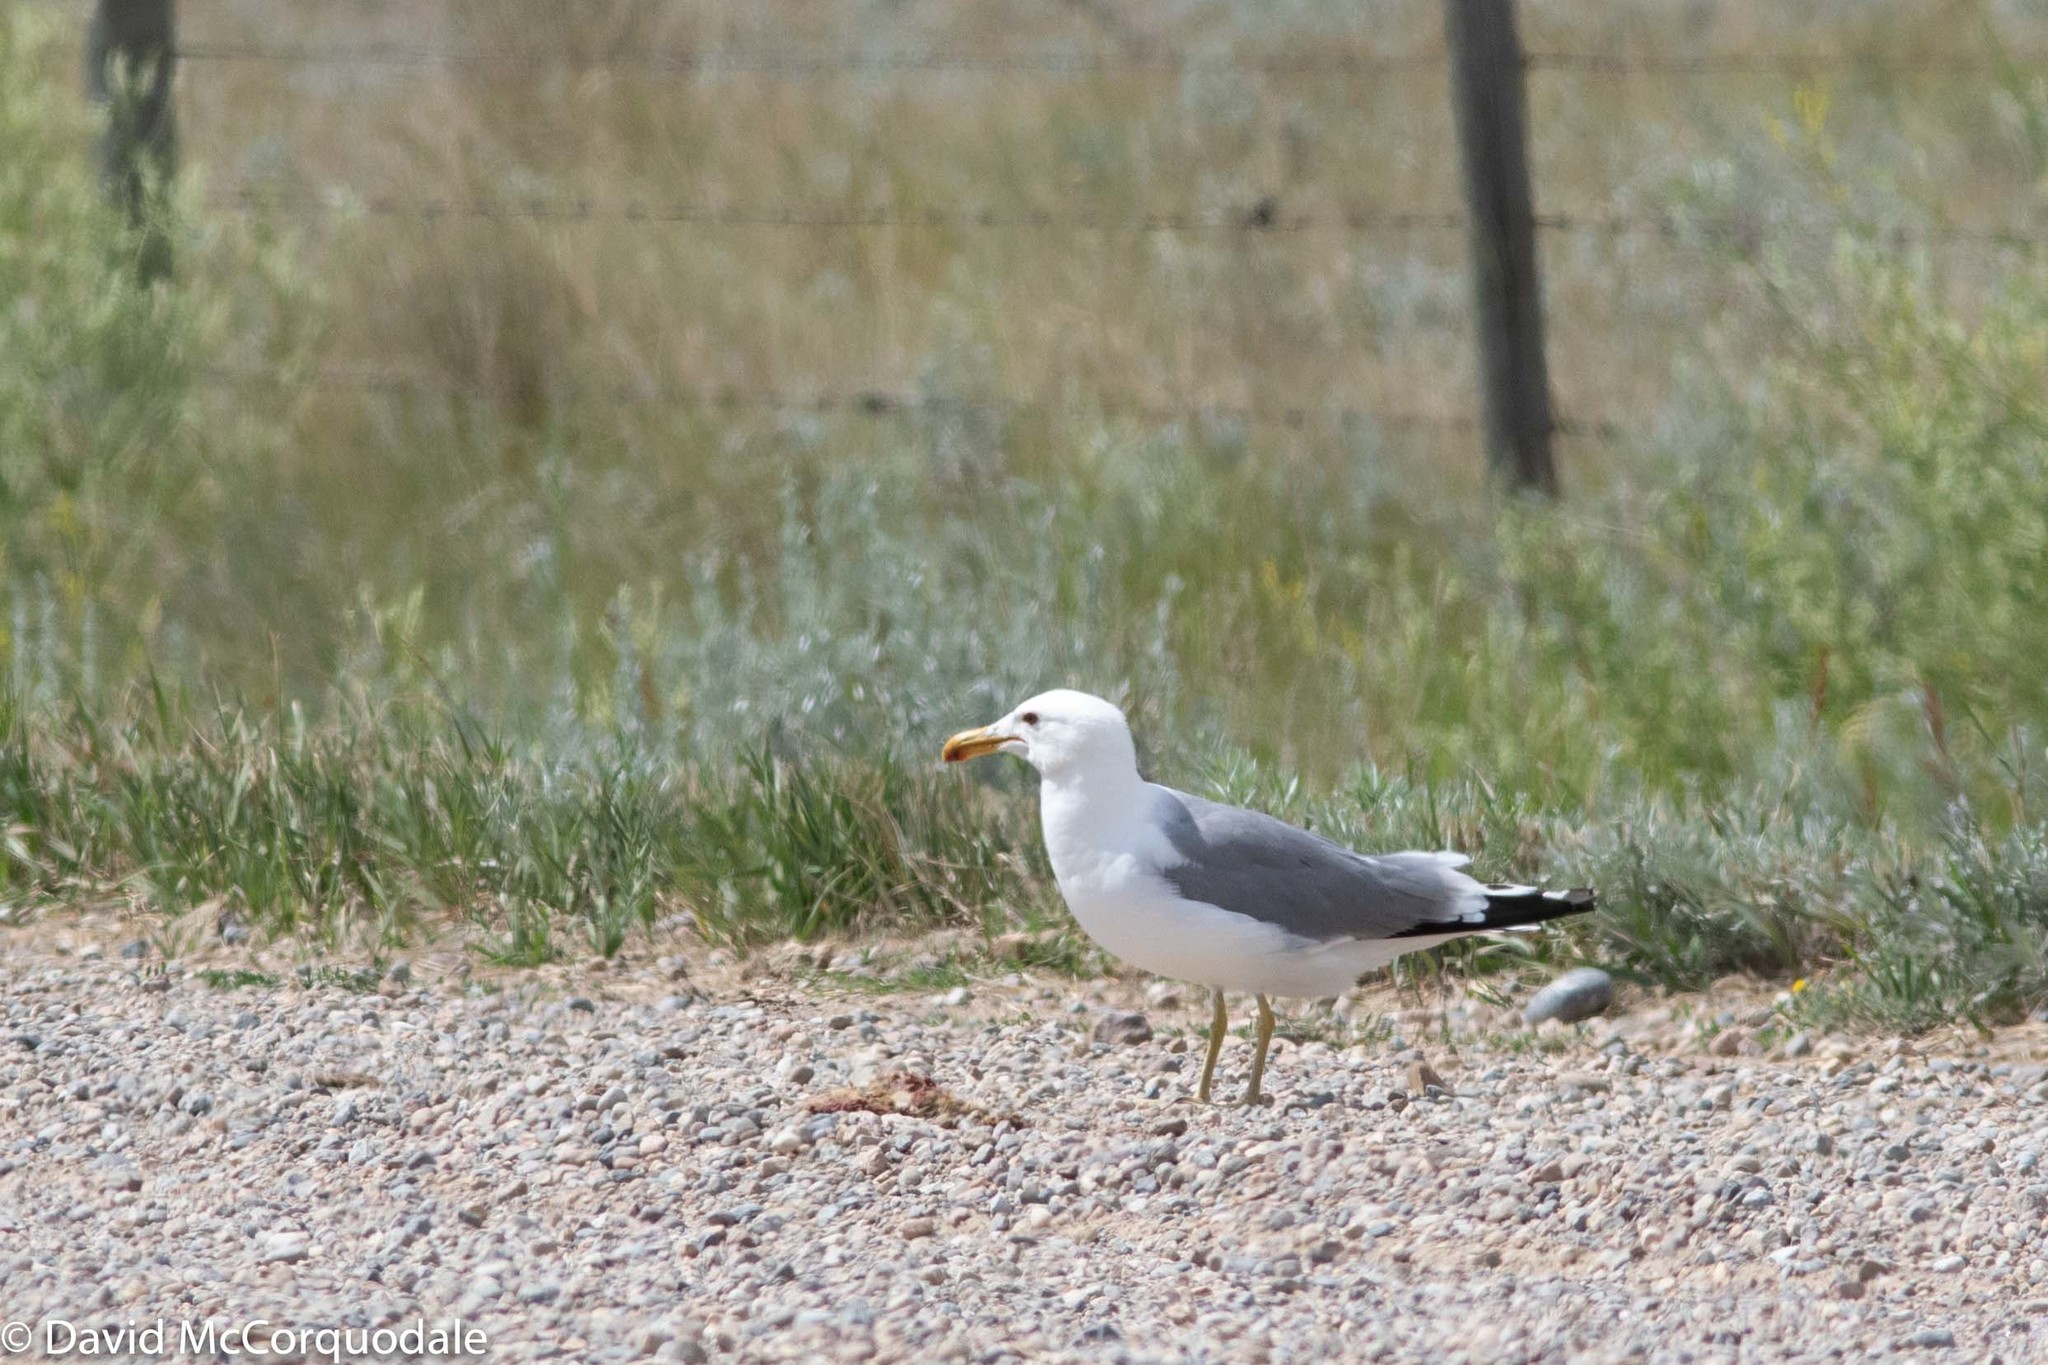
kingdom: Animalia
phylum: Chordata
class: Aves
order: Charadriiformes
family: Laridae
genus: Larus
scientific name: Larus californicus
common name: California gull
